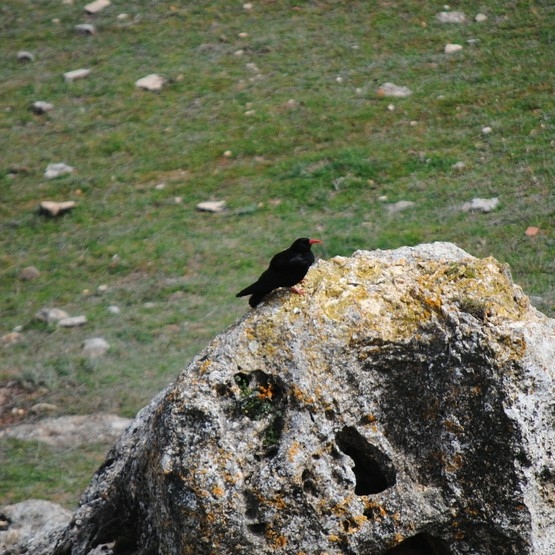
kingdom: Animalia
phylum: Chordata
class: Aves
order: Passeriformes
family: Corvidae
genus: Pyrrhocorax
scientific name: Pyrrhocorax pyrrhocorax
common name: Red-billed chough
